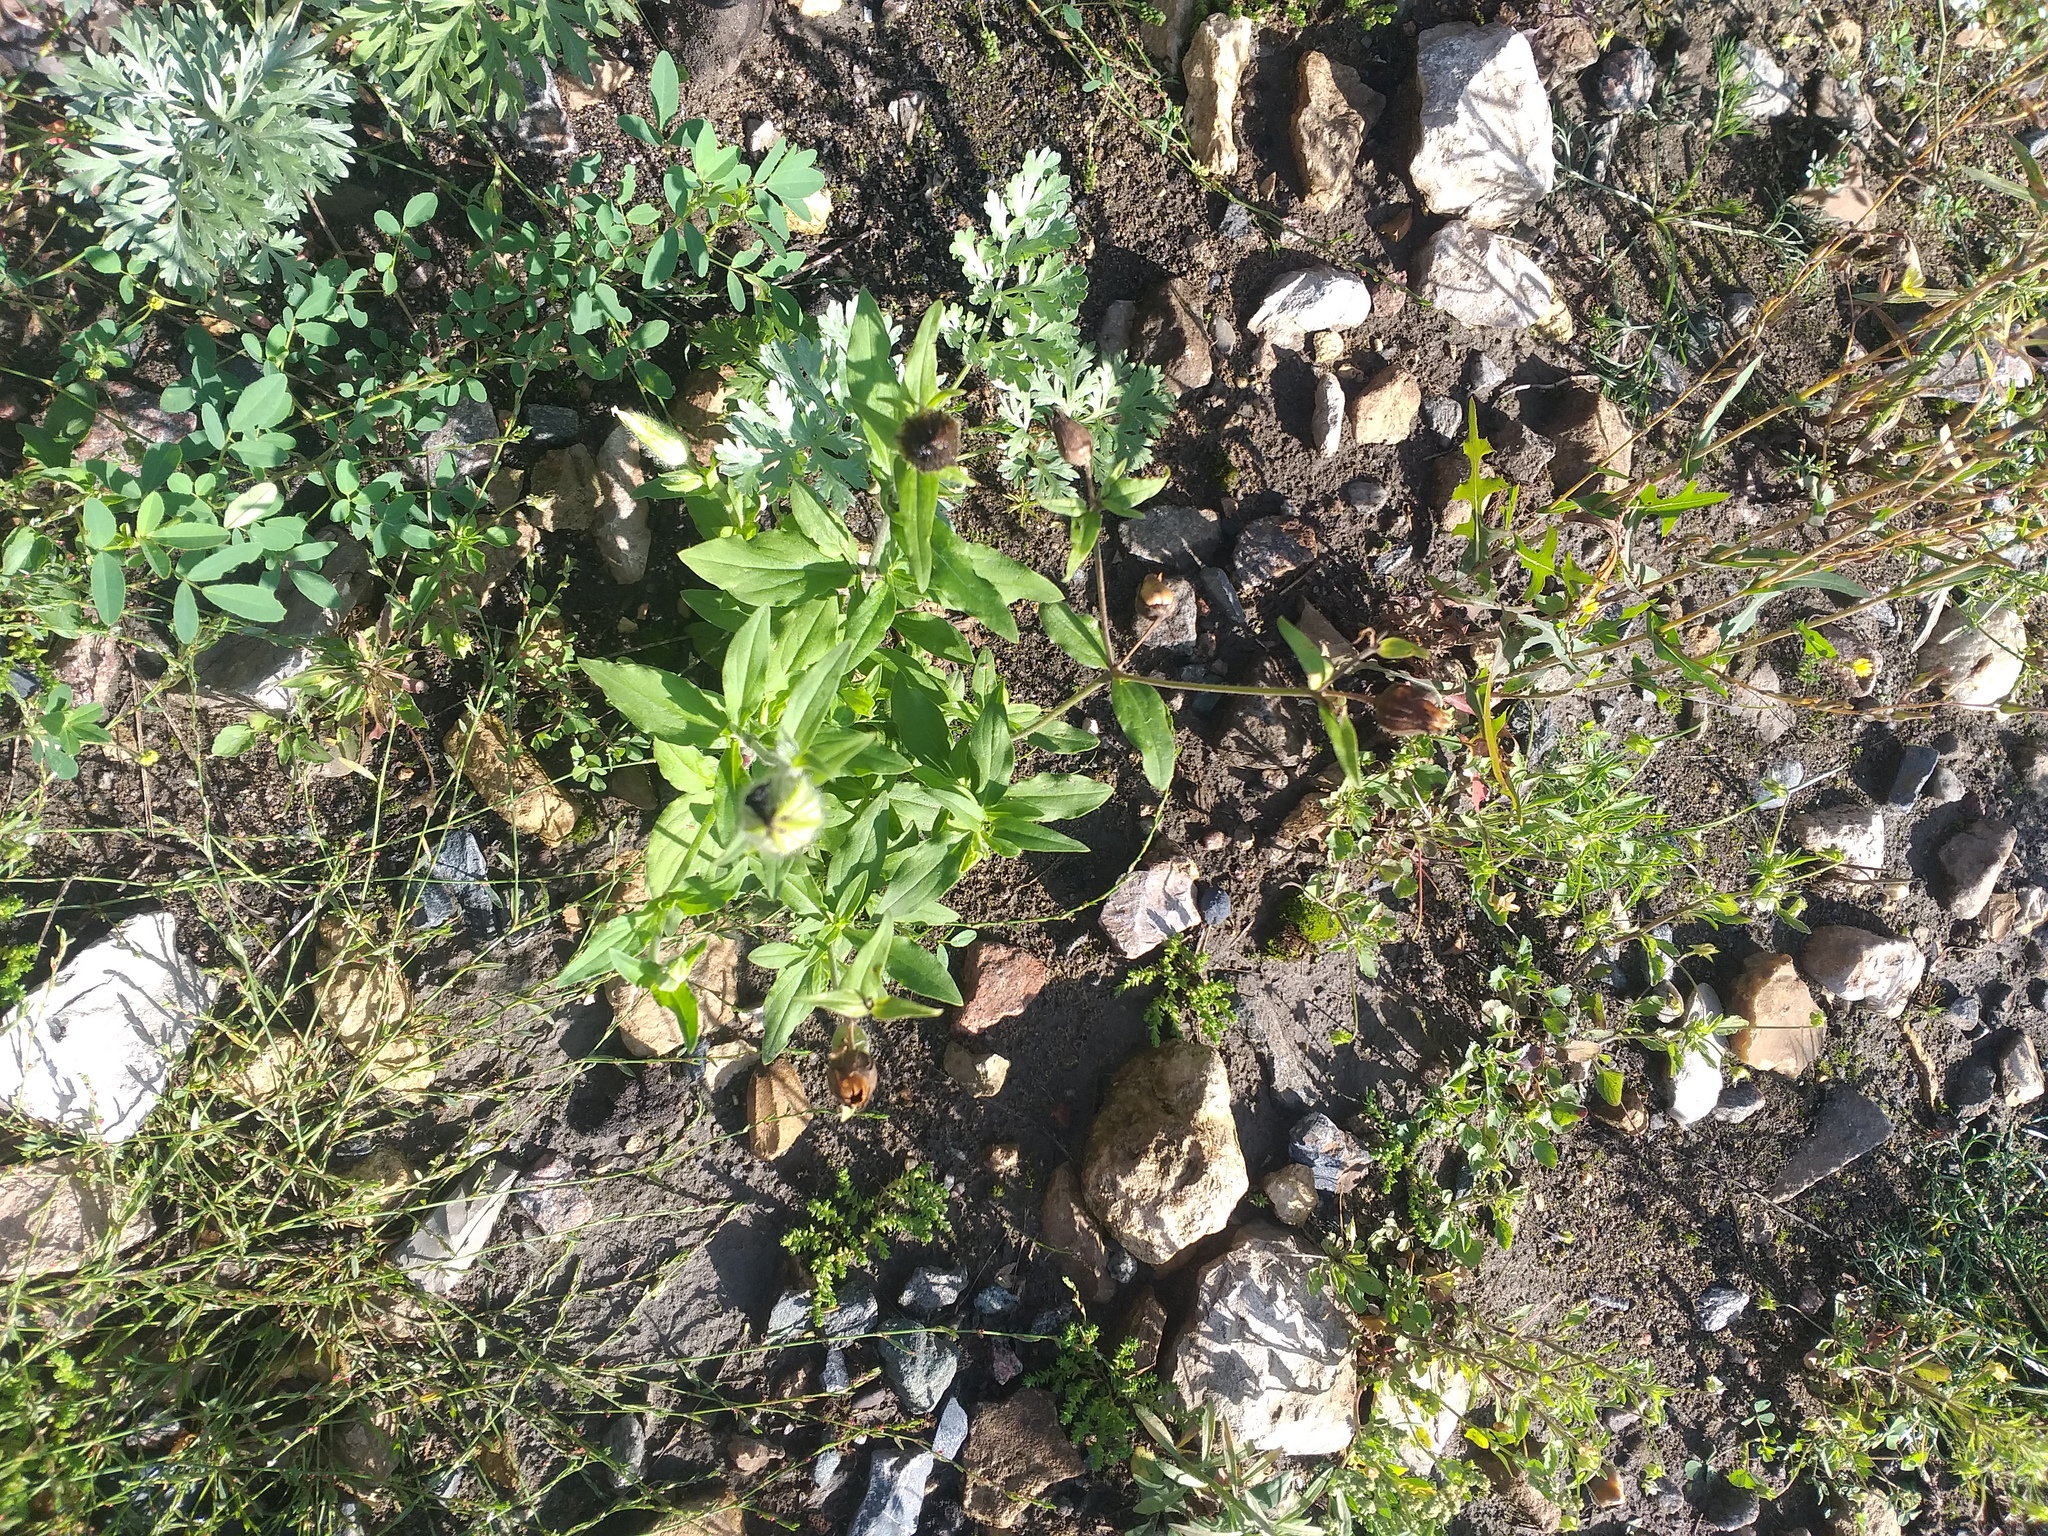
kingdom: Plantae
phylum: Tracheophyta
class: Magnoliopsida
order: Caryophyllales
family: Caryophyllaceae
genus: Silene
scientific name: Silene latifolia
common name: White campion
